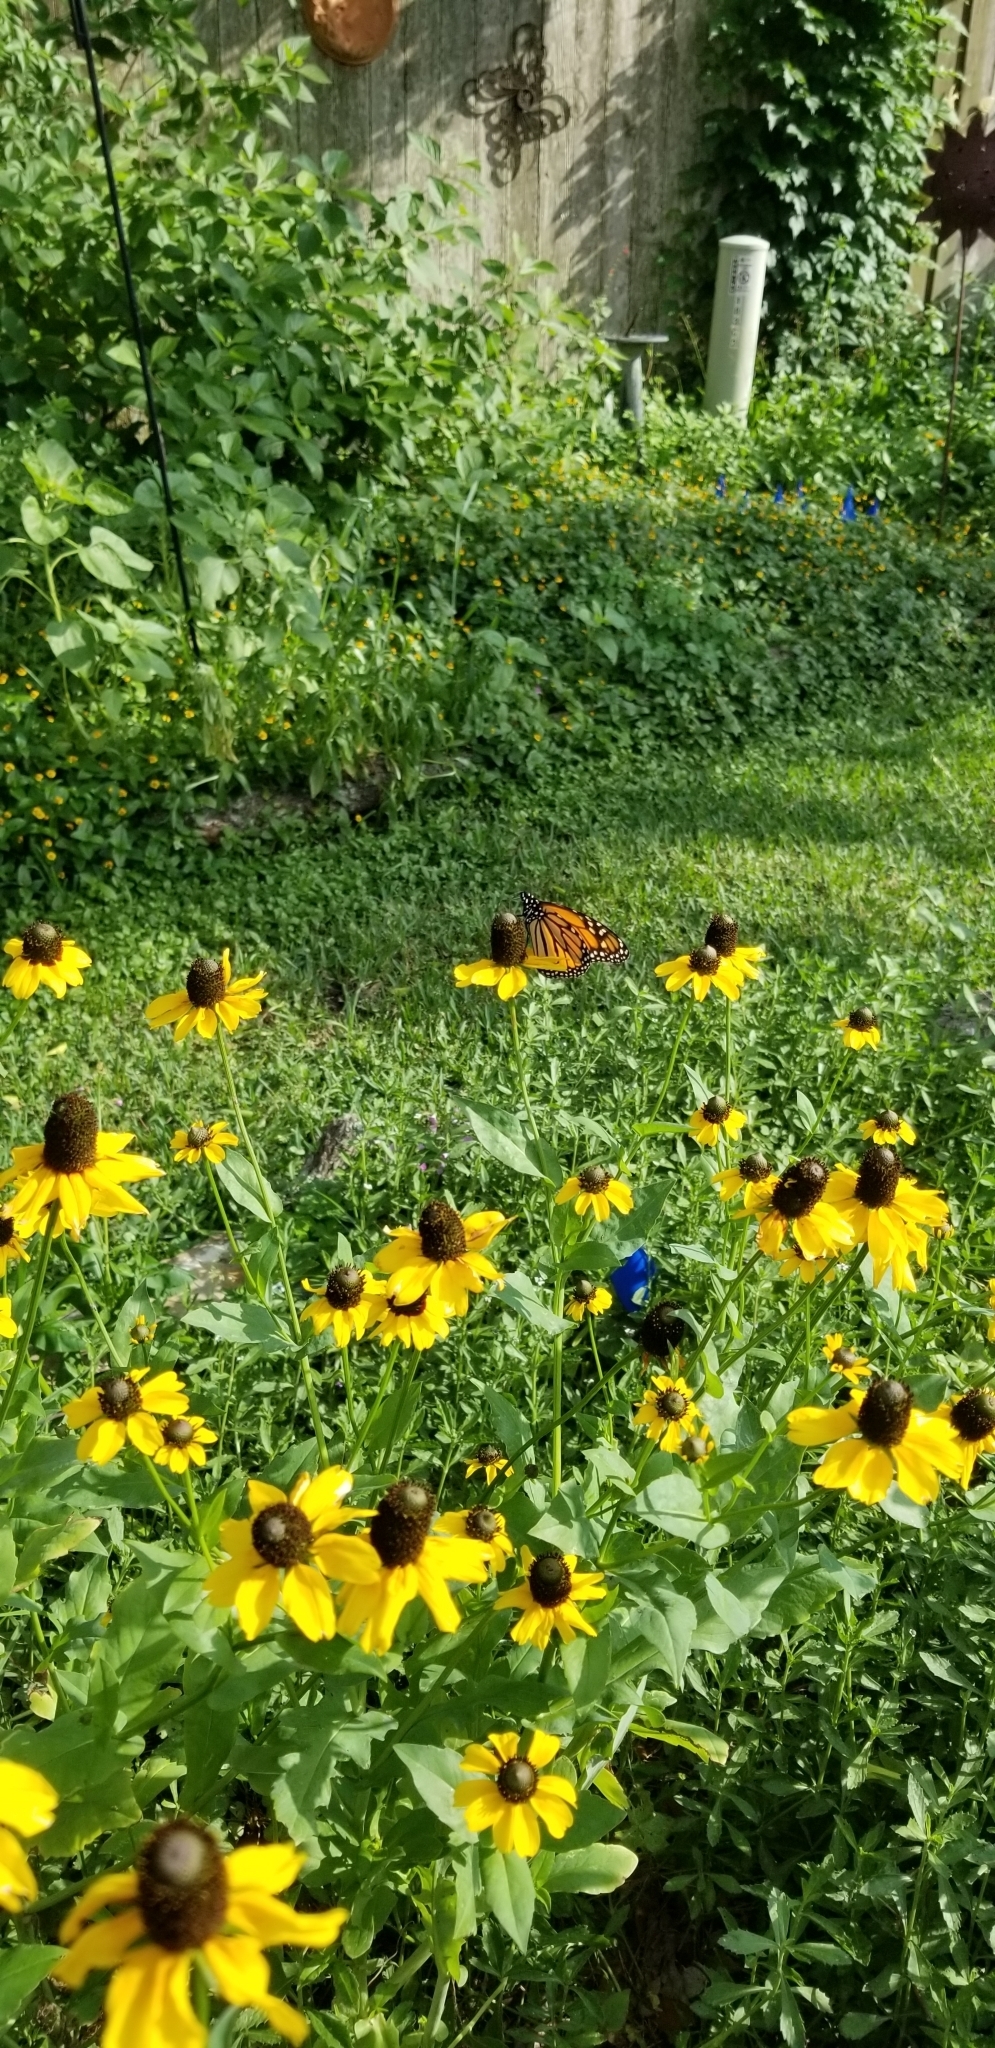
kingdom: Animalia
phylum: Arthropoda
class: Insecta
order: Lepidoptera
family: Nymphalidae
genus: Danaus
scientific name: Danaus plexippus
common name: Monarch
